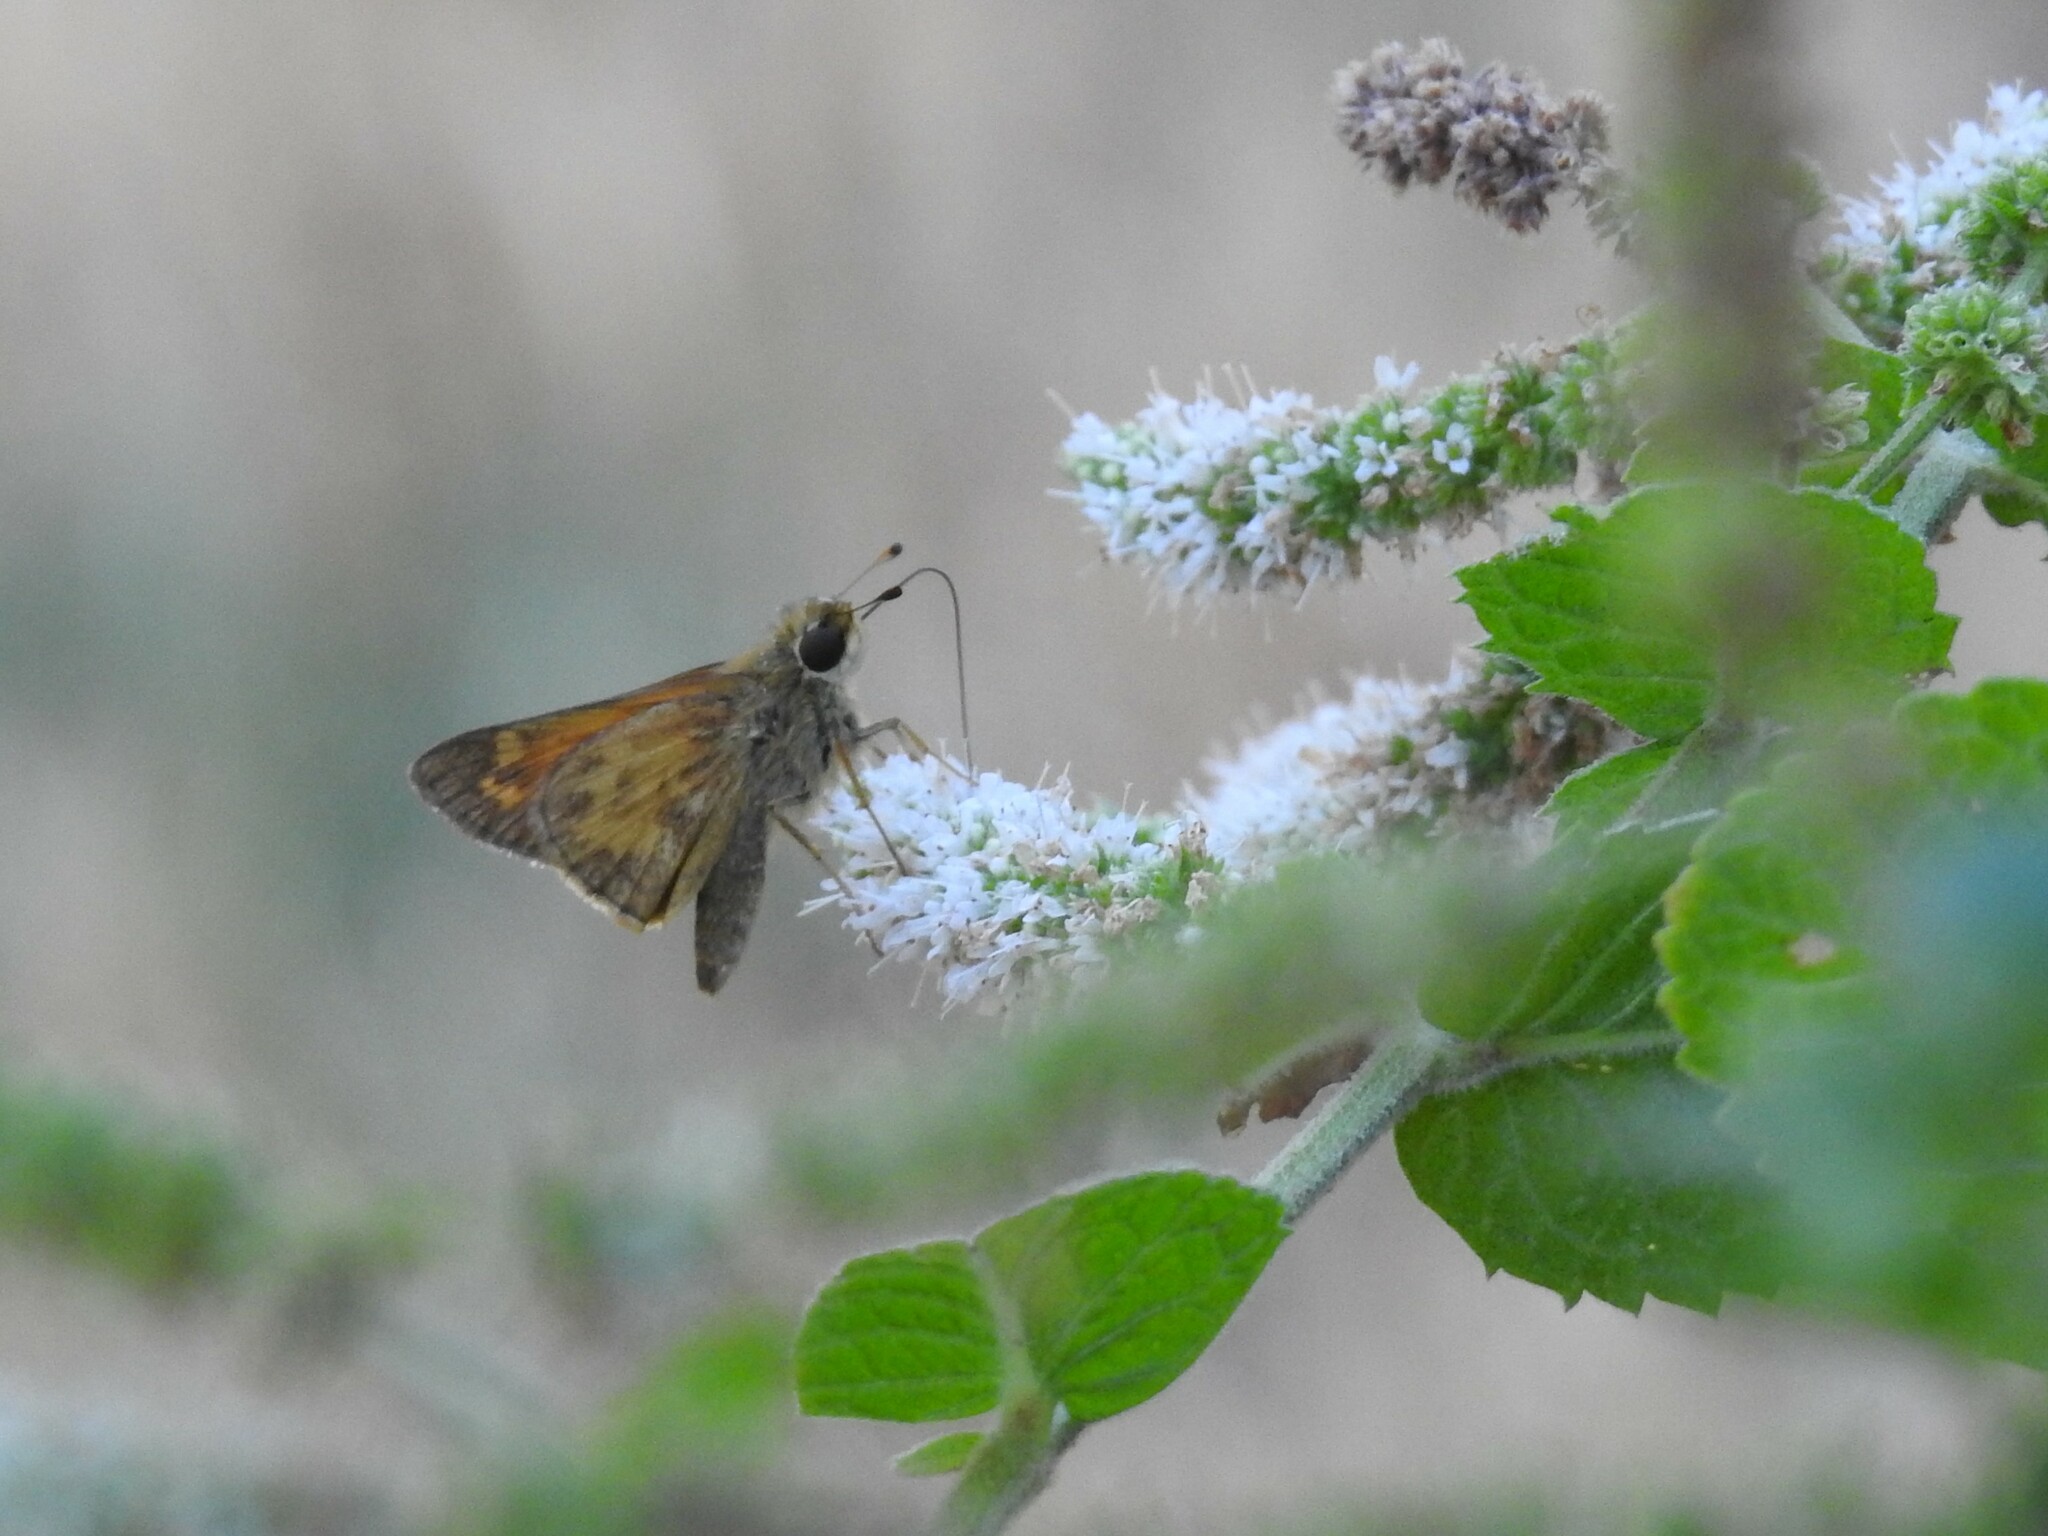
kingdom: Animalia
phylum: Arthropoda
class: Insecta
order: Lepidoptera
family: Hesperiidae
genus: Atalopedes
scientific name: Atalopedes
